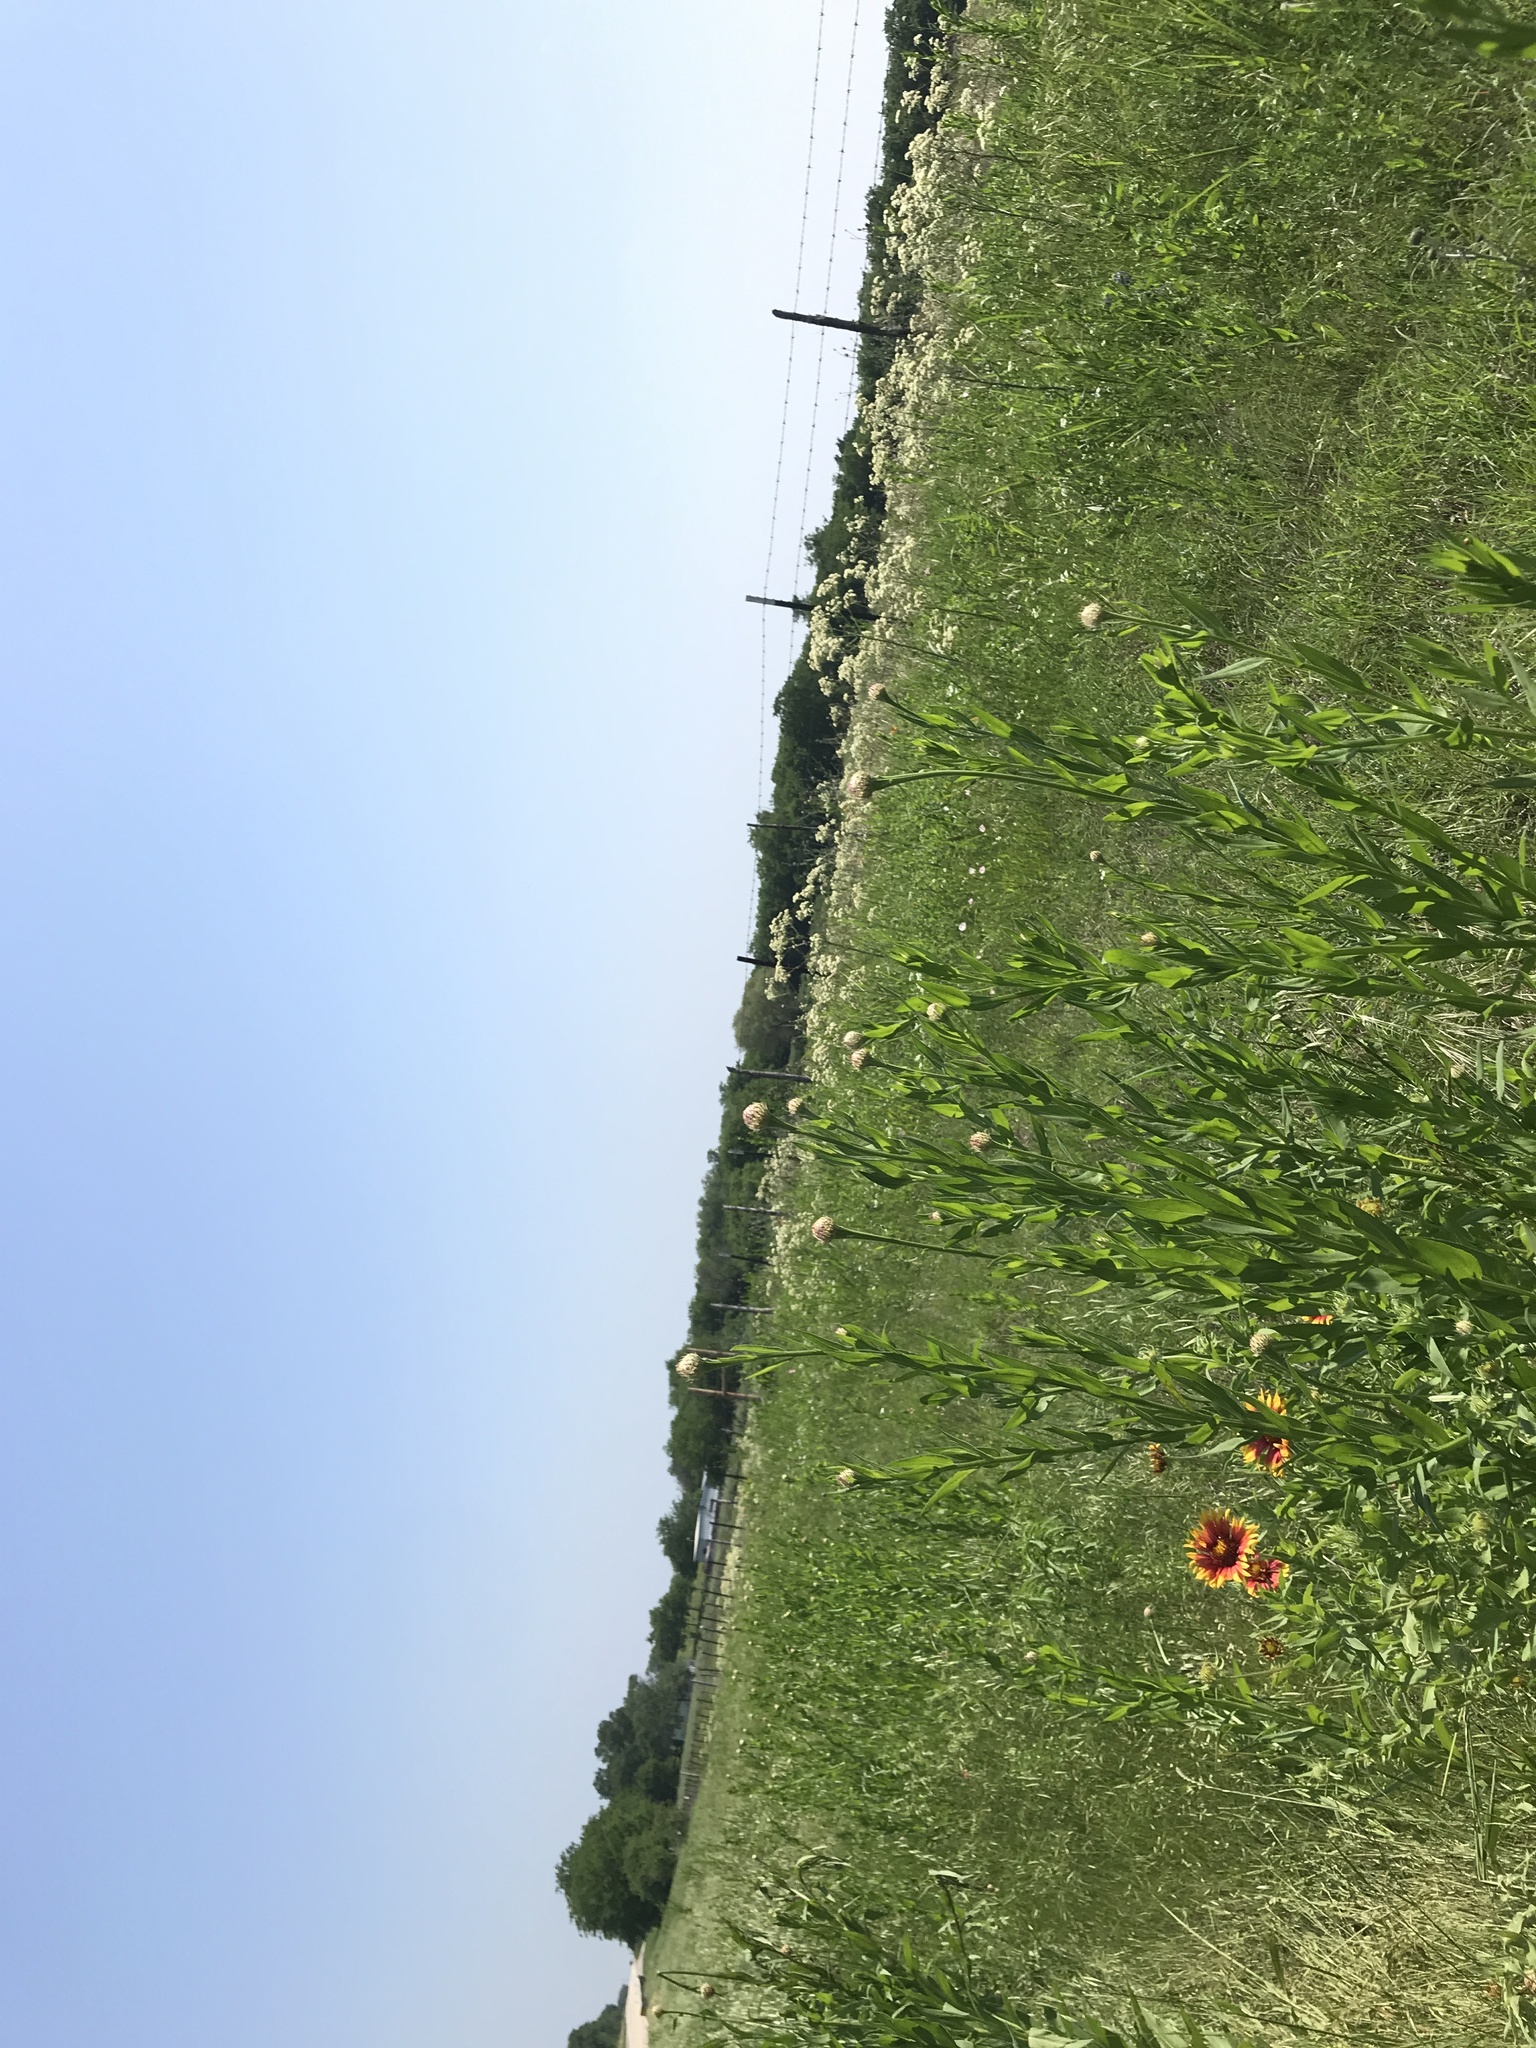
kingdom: Plantae
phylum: Tracheophyta
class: Magnoliopsida
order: Asterales
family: Asteraceae
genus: Plectocephalus
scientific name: Plectocephalus americanus
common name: American basket-flower
